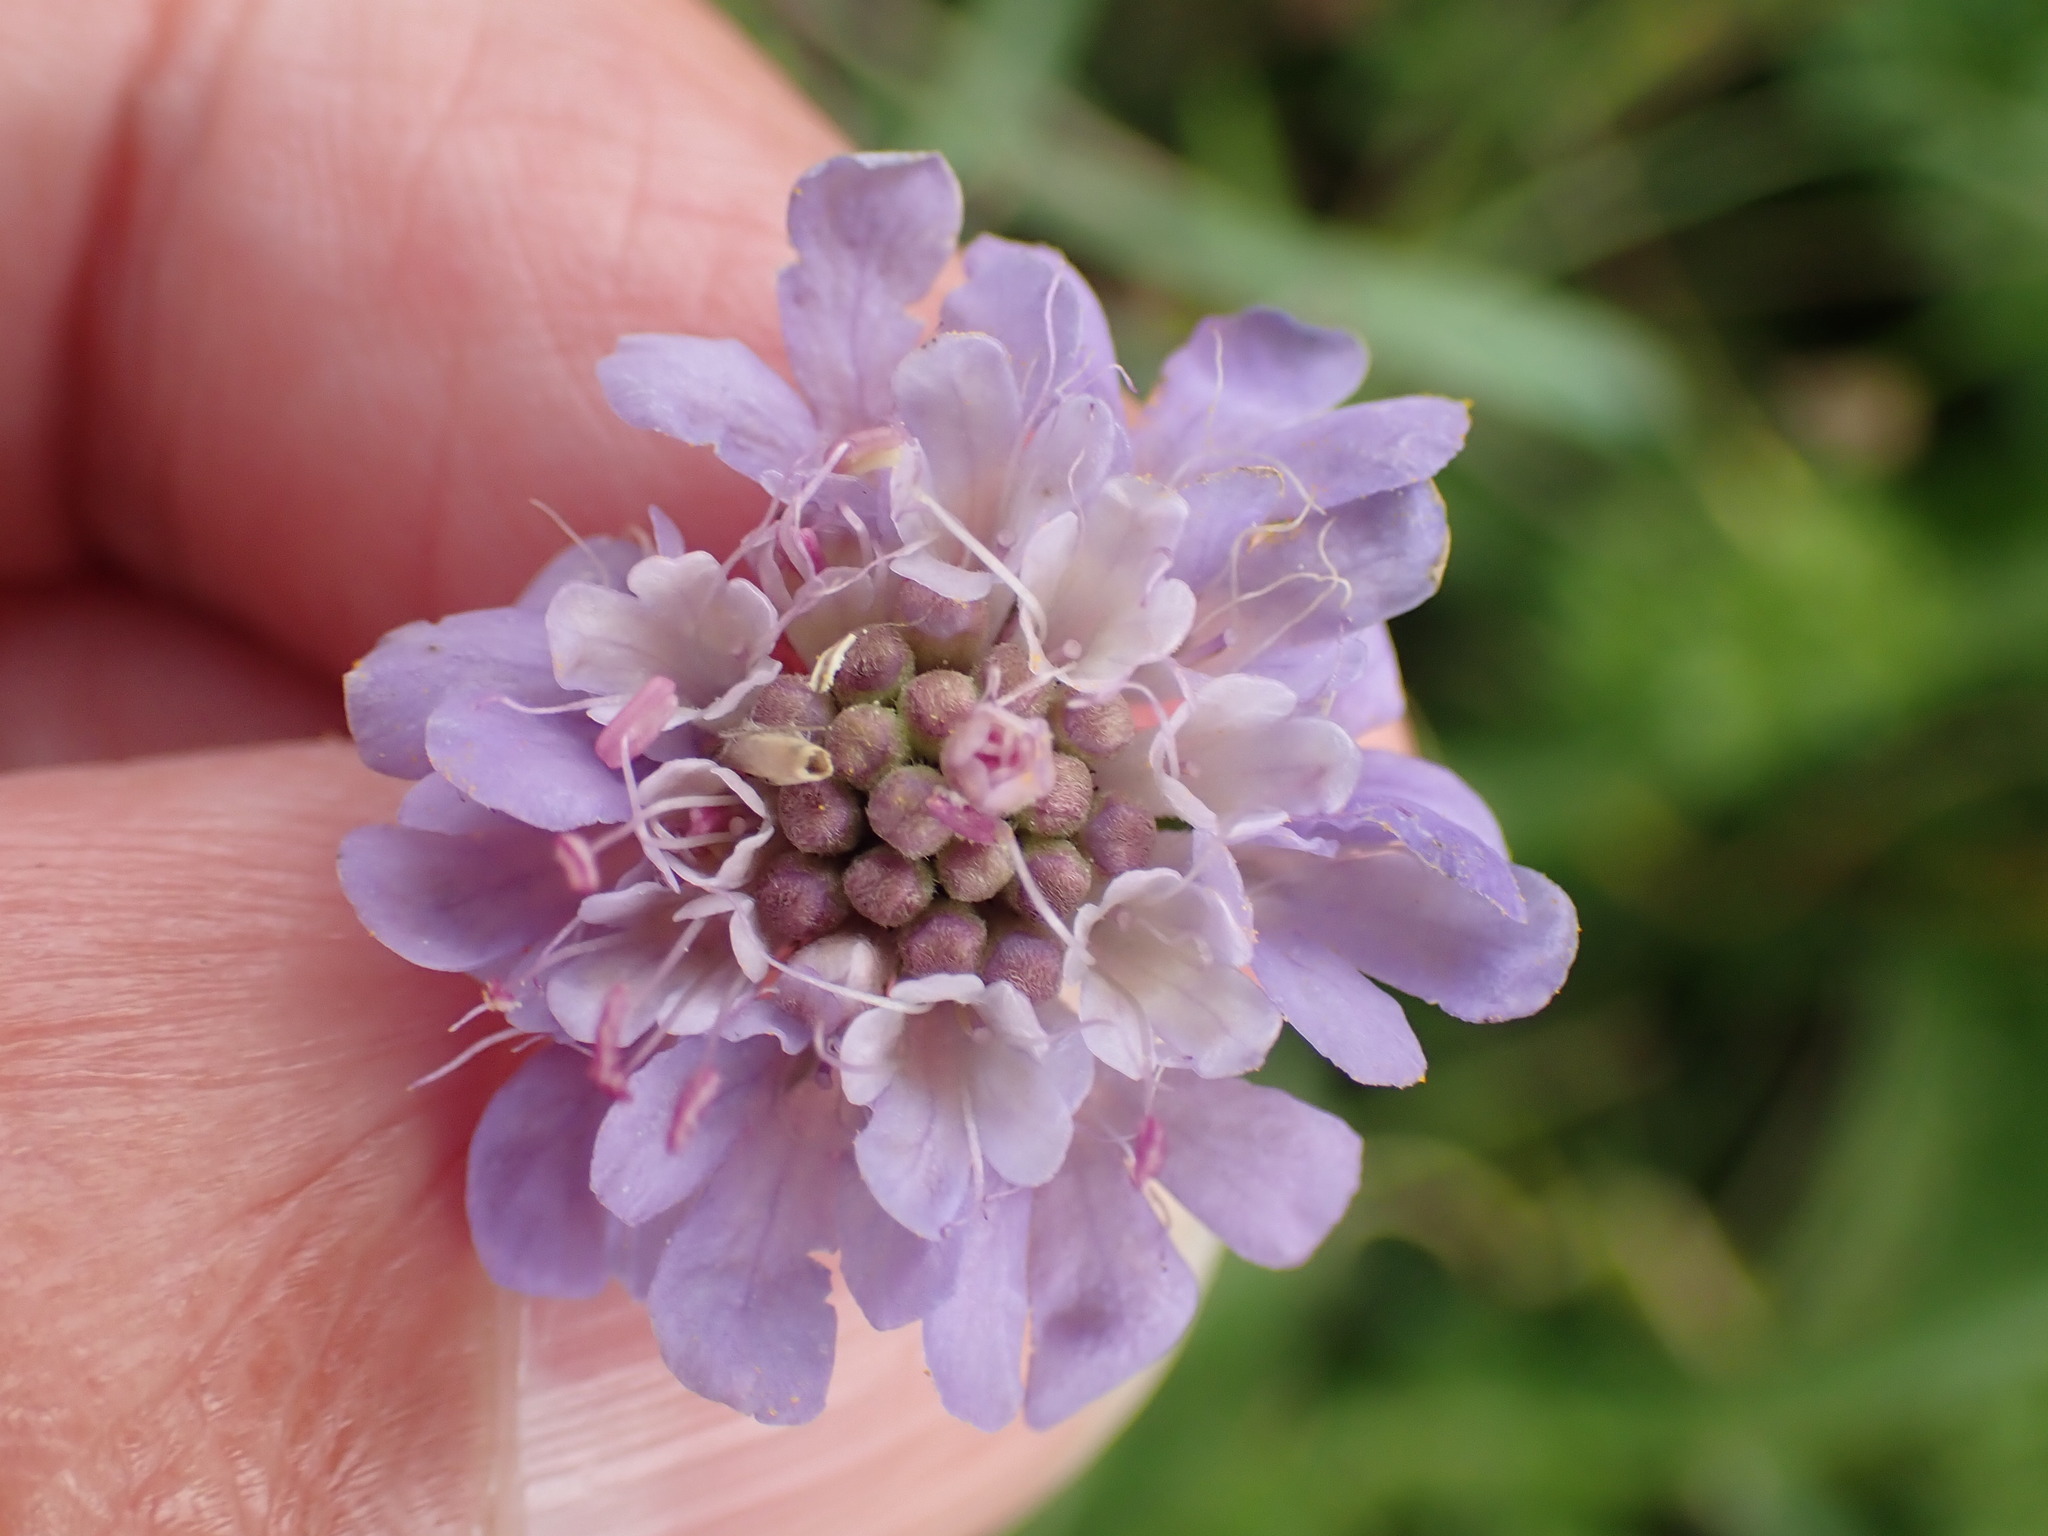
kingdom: Plantae
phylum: Tracheophyta
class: Magnoliopsida
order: Dipsacales
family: Caprifoliaceae
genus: Scabiosa
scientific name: Scabiosa columbaria
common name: Small scabious
